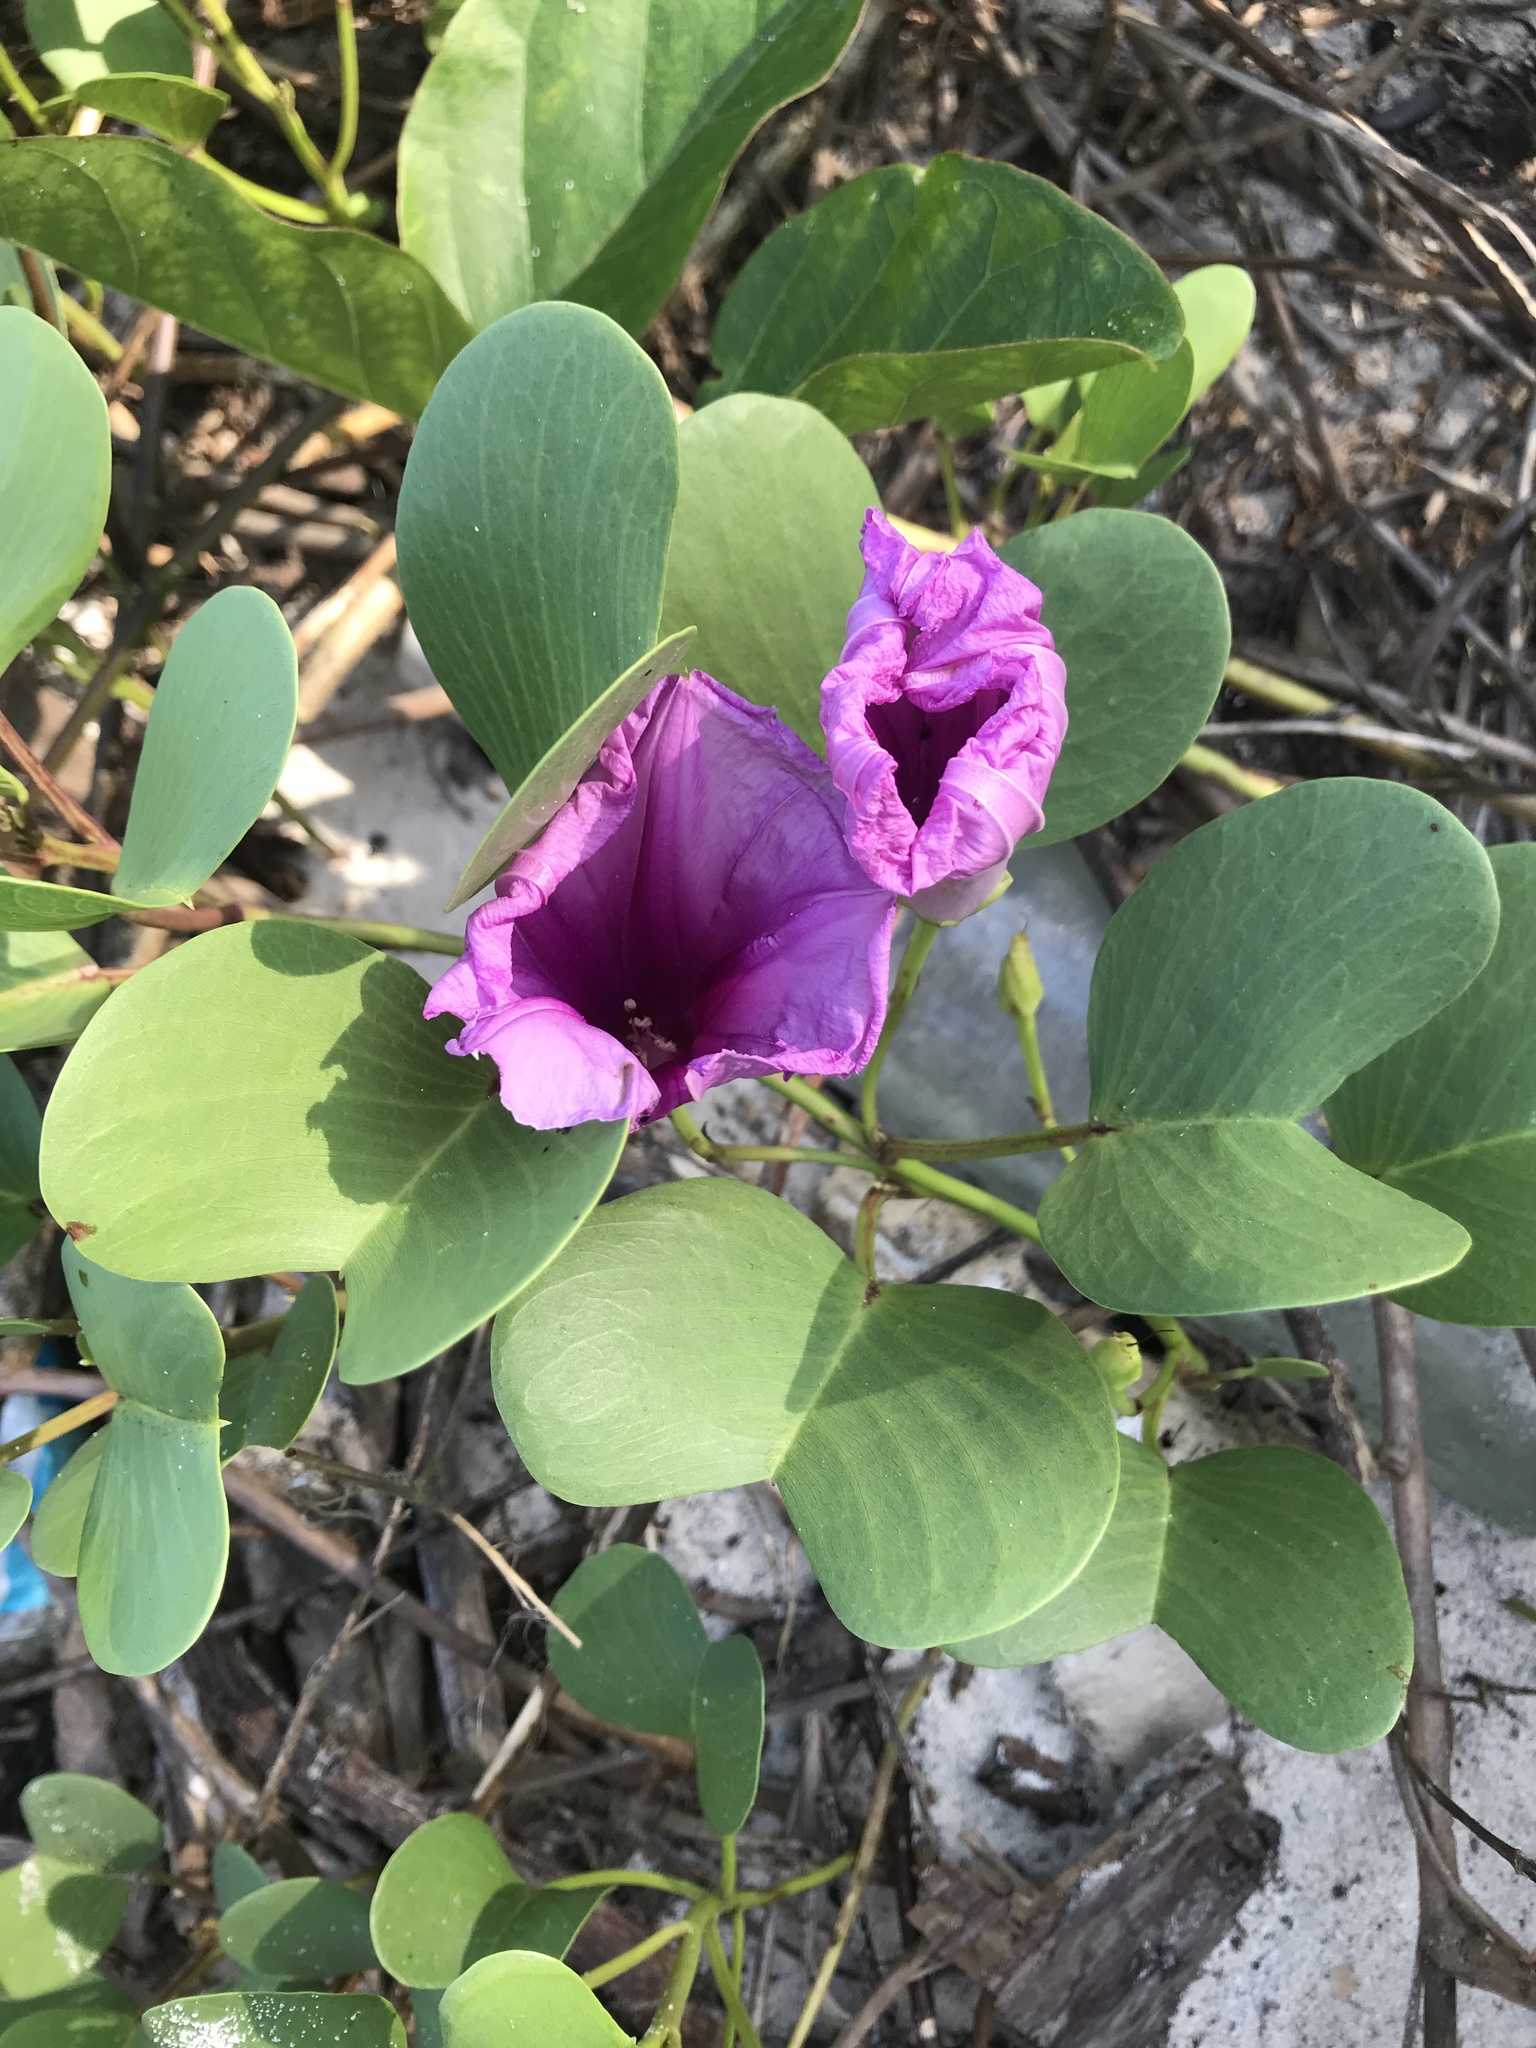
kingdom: Plantae
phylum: Tracheophyta
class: Magnoliopsida
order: Solanales
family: Convolvulaceae
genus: Ipomoea
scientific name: Ipomoea pes-caprae
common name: Beach morning glory
